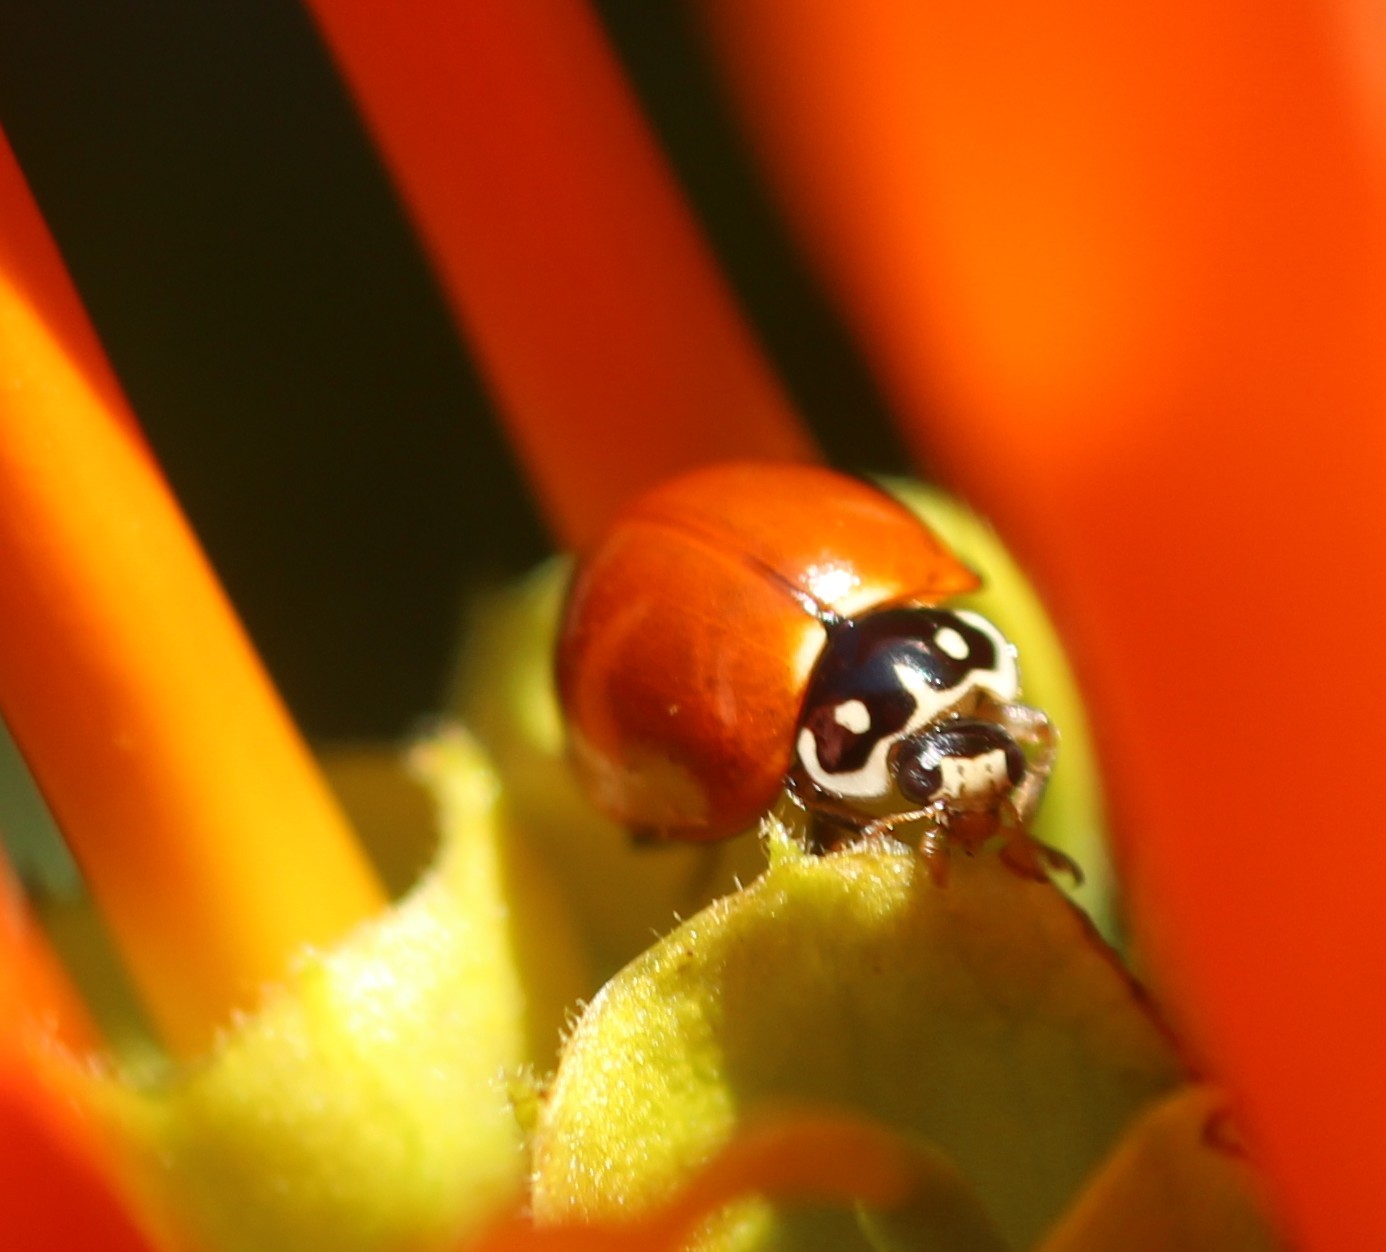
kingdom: Animalia
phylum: Arthropoda
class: Insecta
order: Coleoptera
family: Coccinellidae
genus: Cycloneda
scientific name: Cycloneda sanguinea
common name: Ladybird beetle
